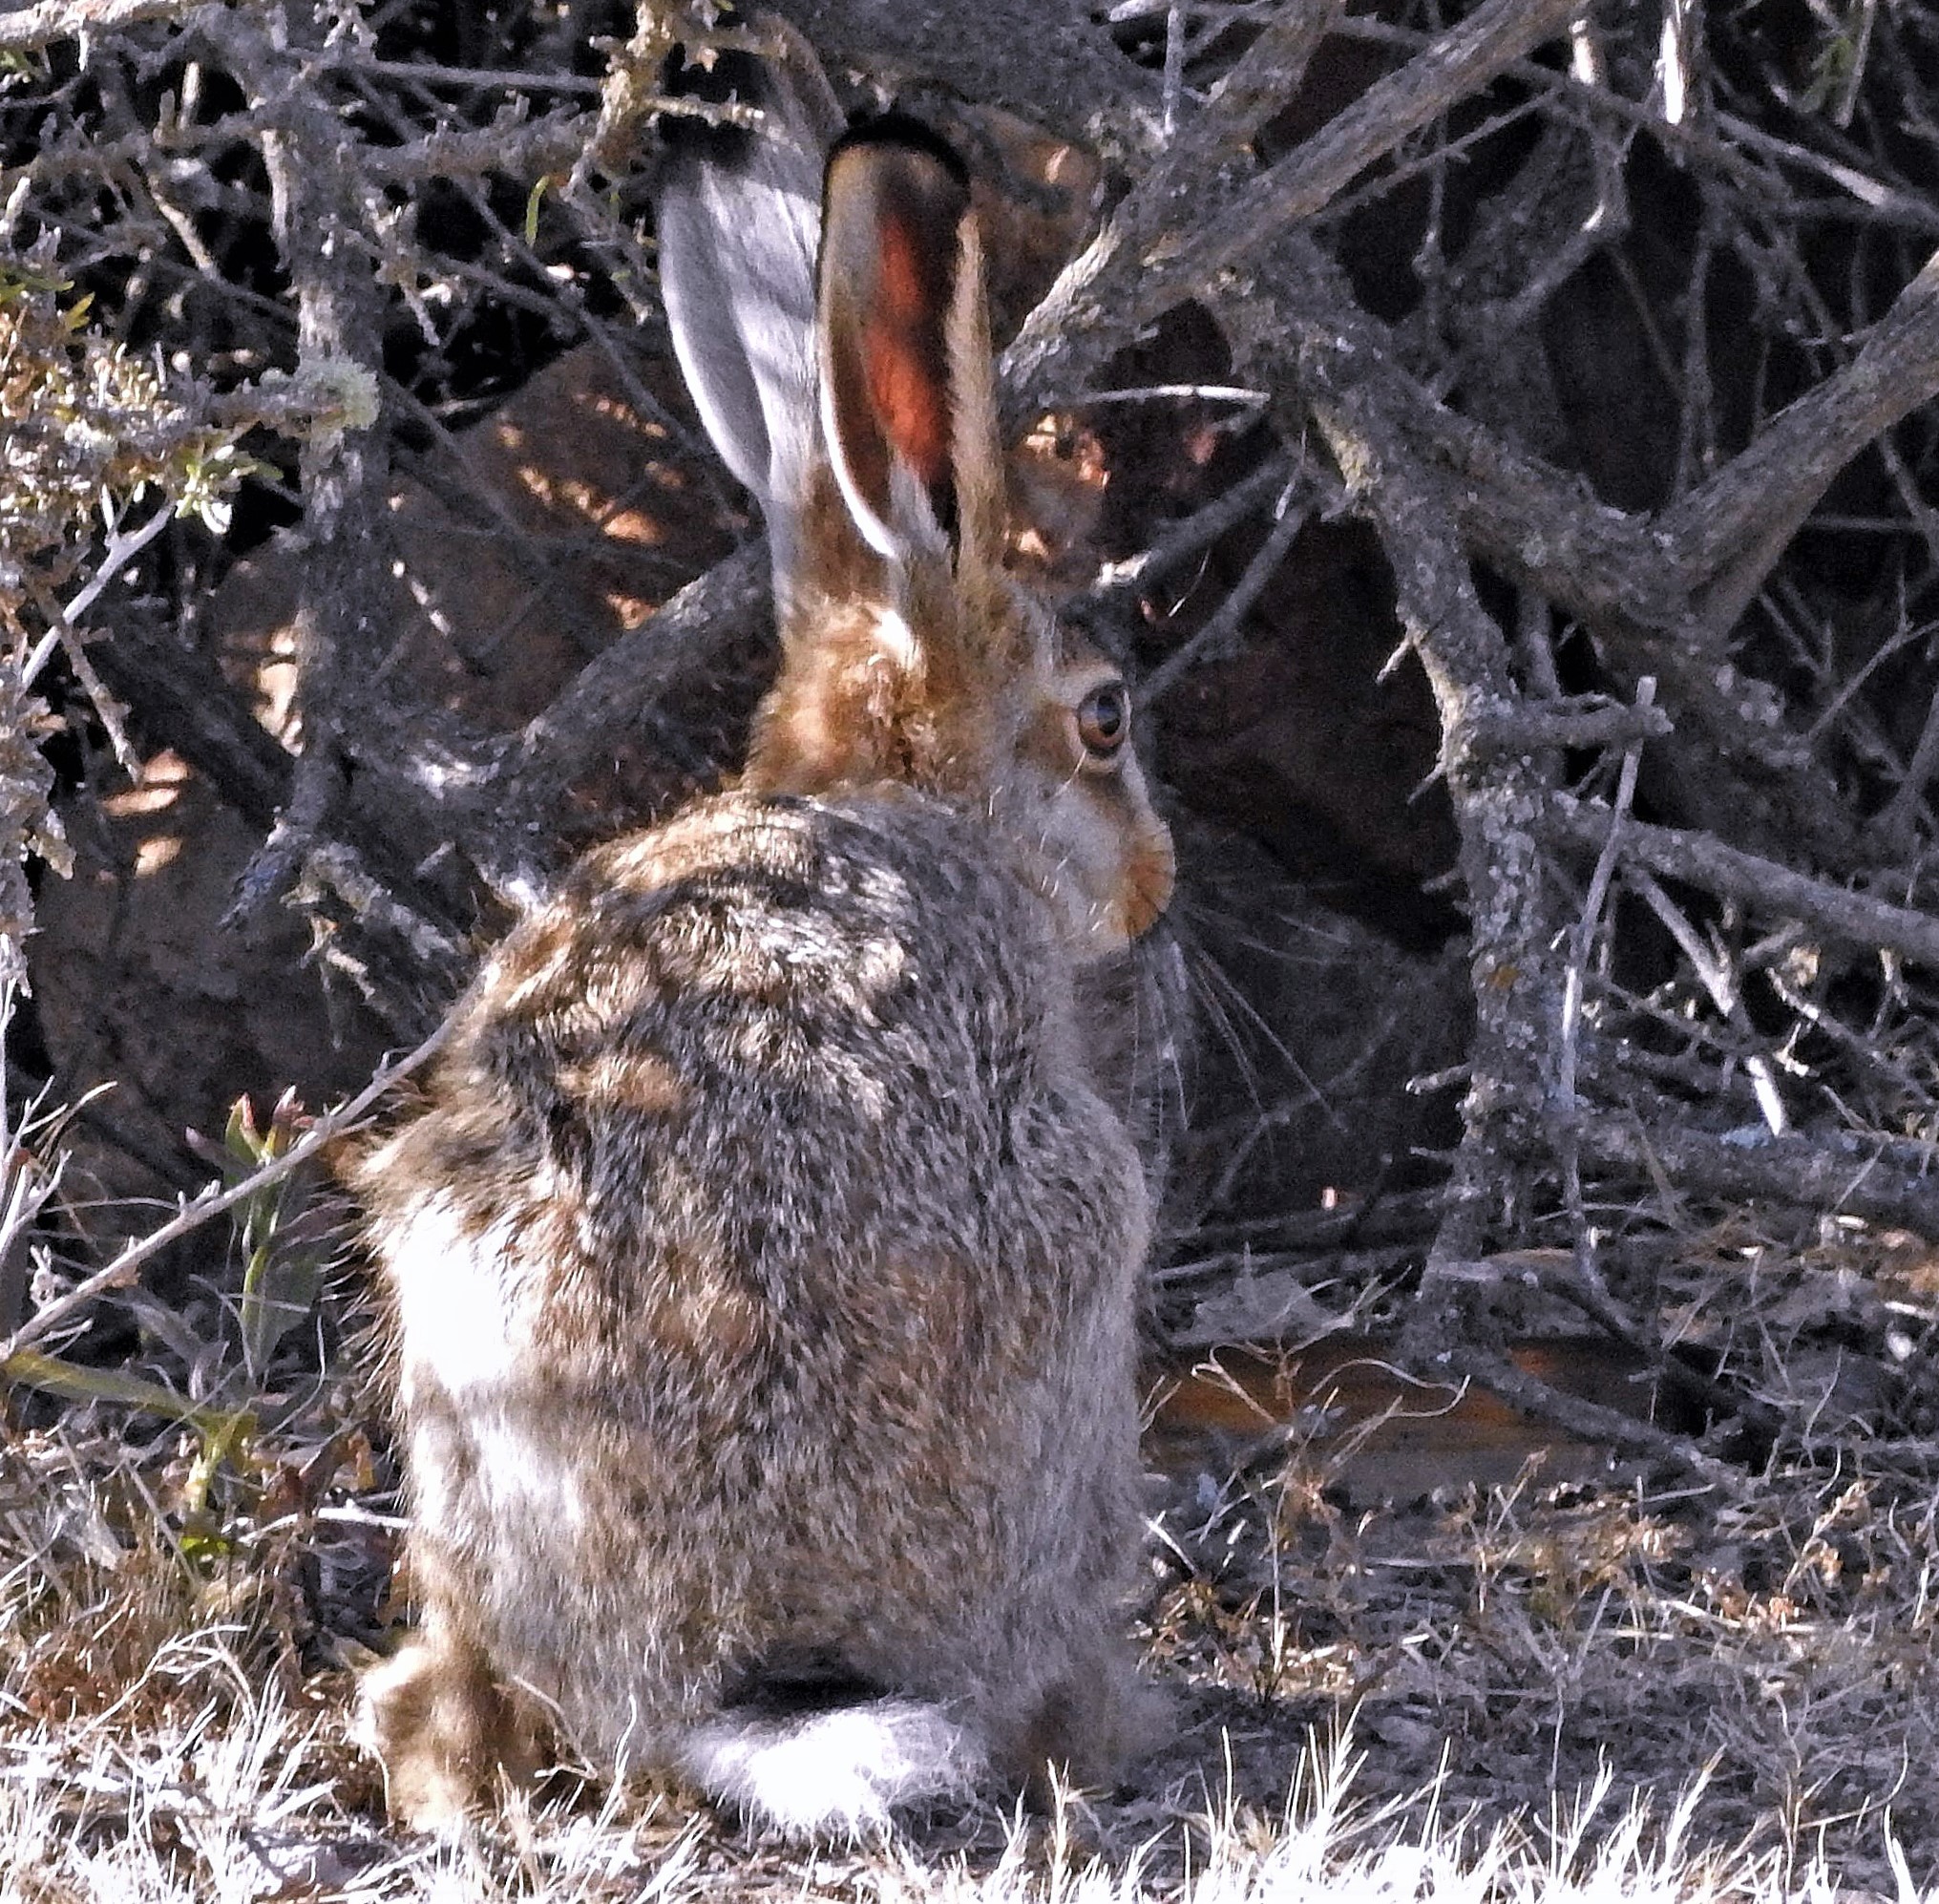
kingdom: Animalia
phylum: Chordata
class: Mammalia
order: Lagomorpha
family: Leporidae
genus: Lepus
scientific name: Lepus europaeus
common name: European hare
